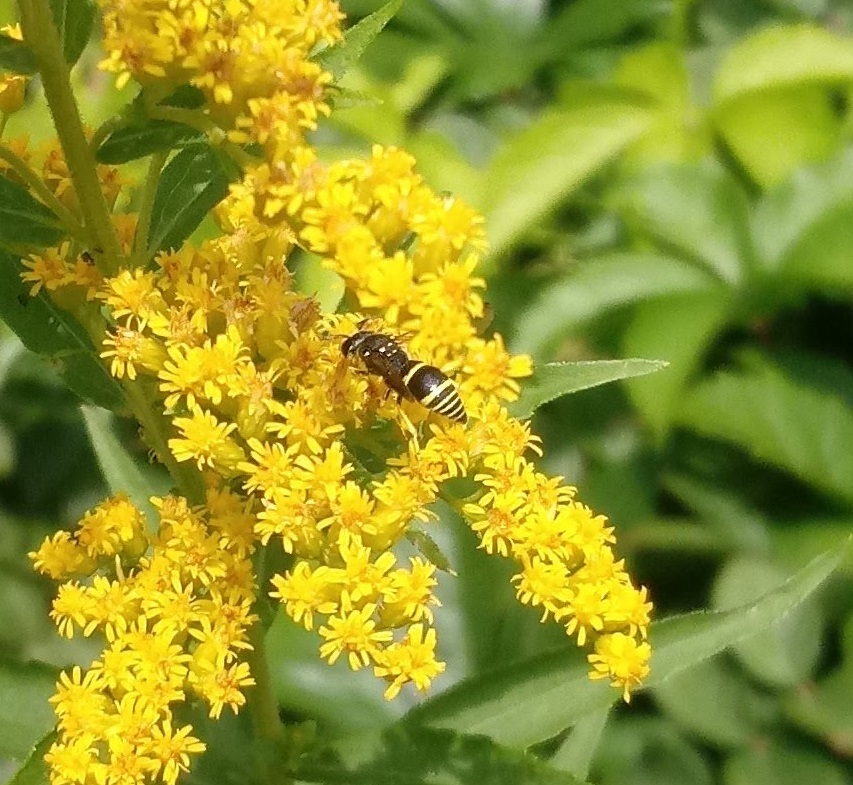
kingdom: Animalia
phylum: Arthropoda
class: Insecta
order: Hymenoptera
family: Vespidae
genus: Ancistrocerus
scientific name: Ancistrocerus
